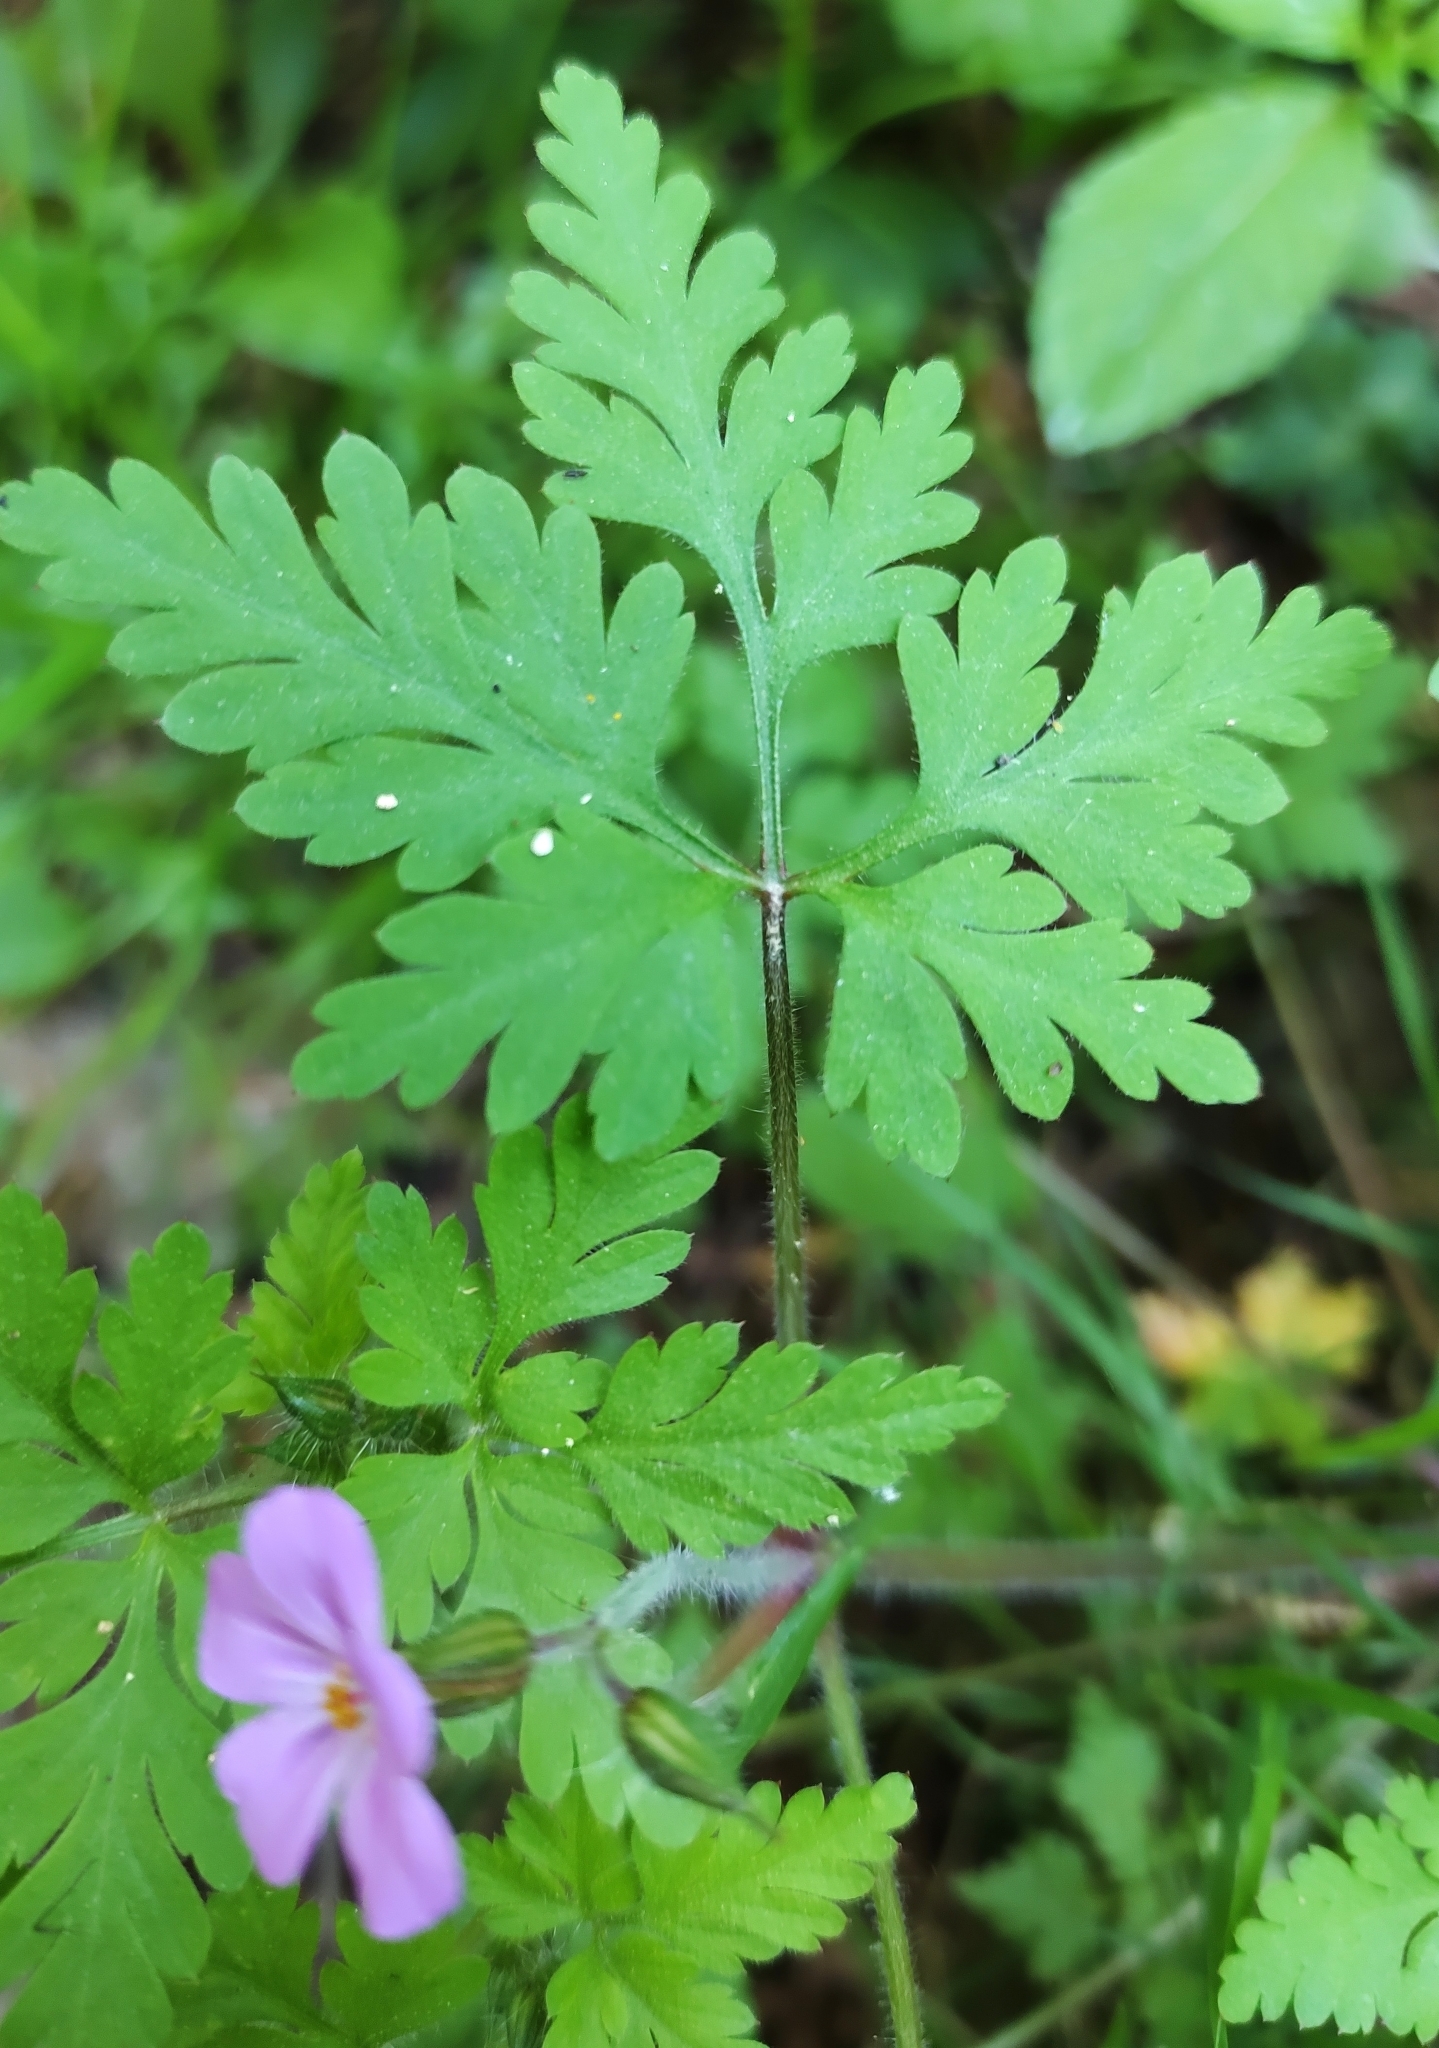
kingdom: Plantae
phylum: Tracheophyta
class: Magnoliopsida
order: Geraniales
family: Geraniaceae
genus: Geranium
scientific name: Geranium robertianum
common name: Herb-robert
